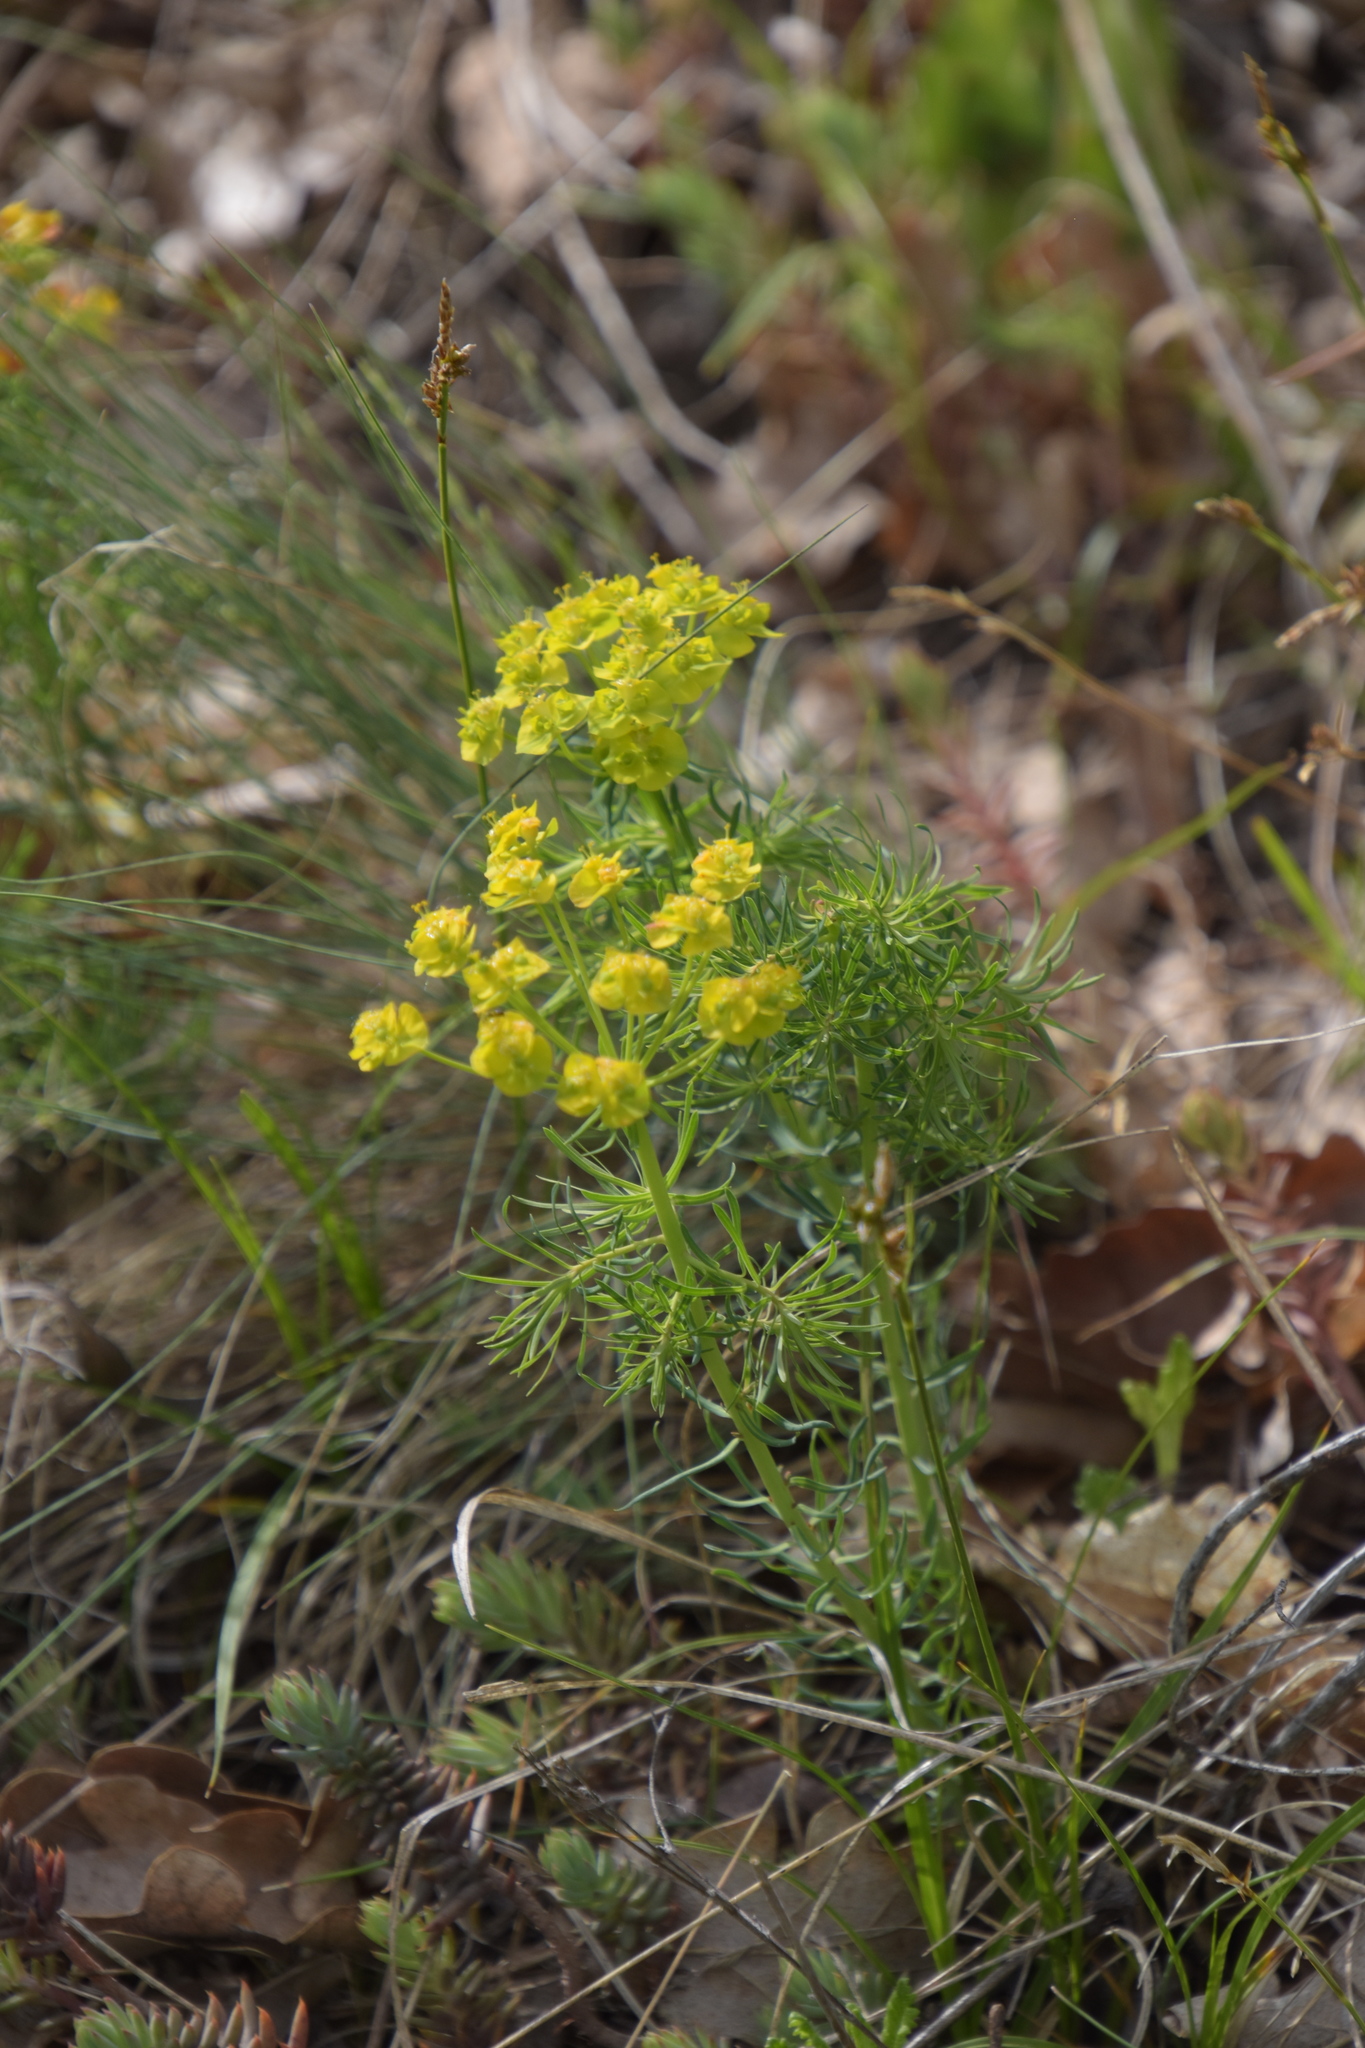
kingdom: Plantae
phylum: Tracheophyta
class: Magnoliopsida
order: Malpighiales
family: Euphorbiaceae
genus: Euphorbia
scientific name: Euphorbia cyparissias
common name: Cypress spurge
